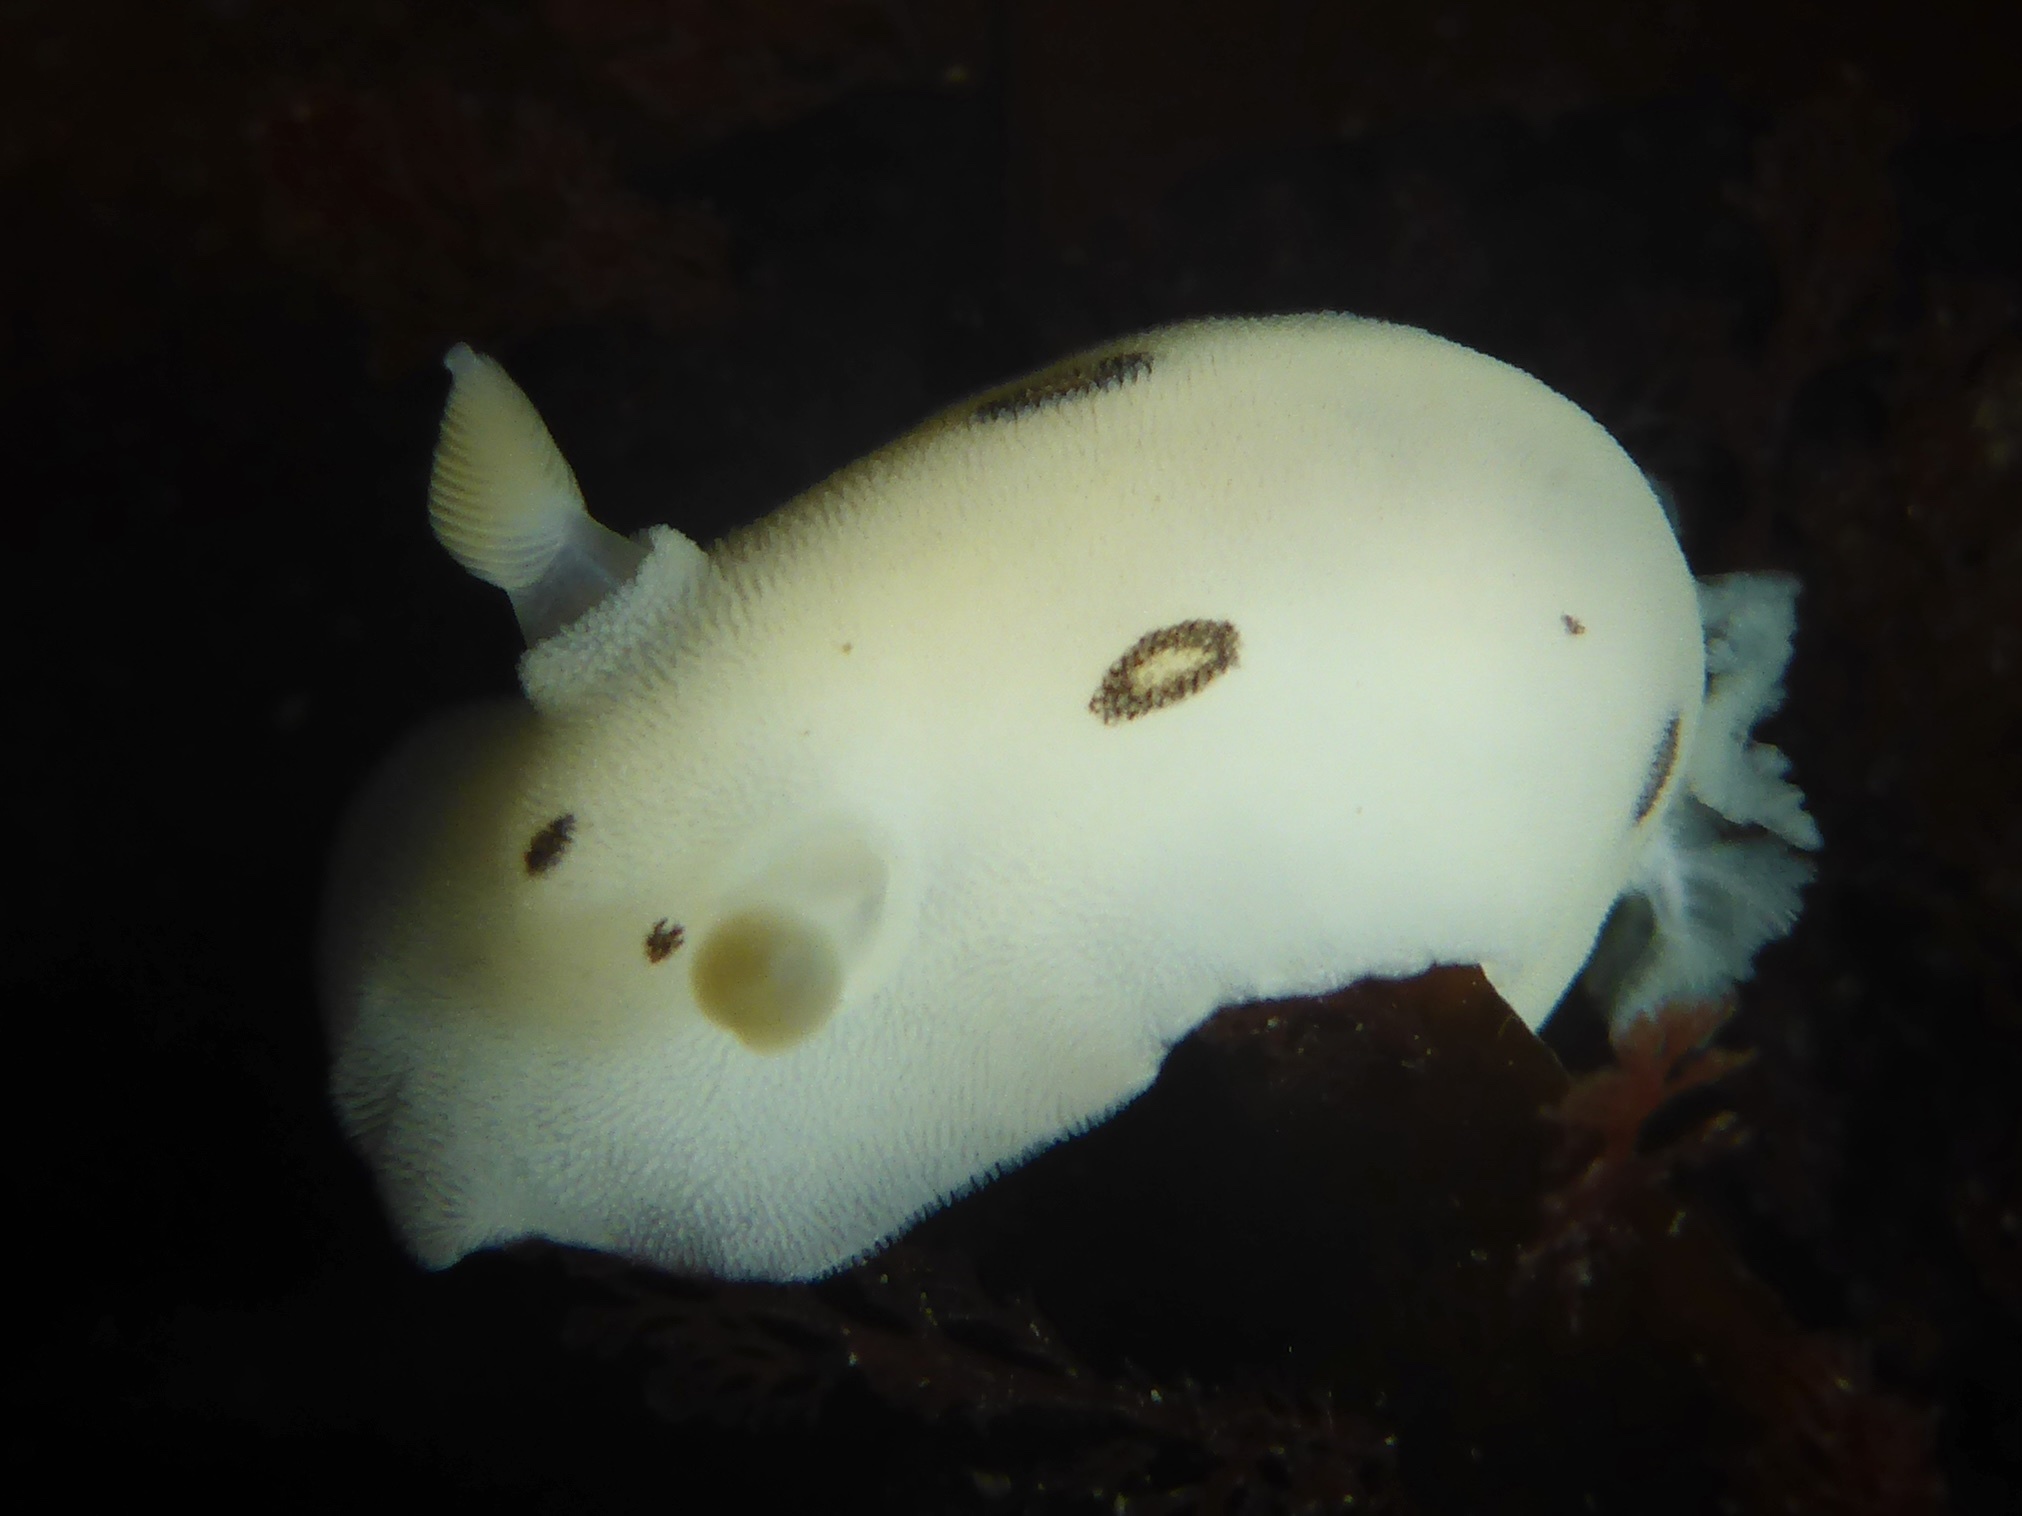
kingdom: Animalia
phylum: Mollusca
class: Gastropoda
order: Nudibranchia
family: Discodorididae
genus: Diaulula
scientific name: Diaulula sandiegensis
